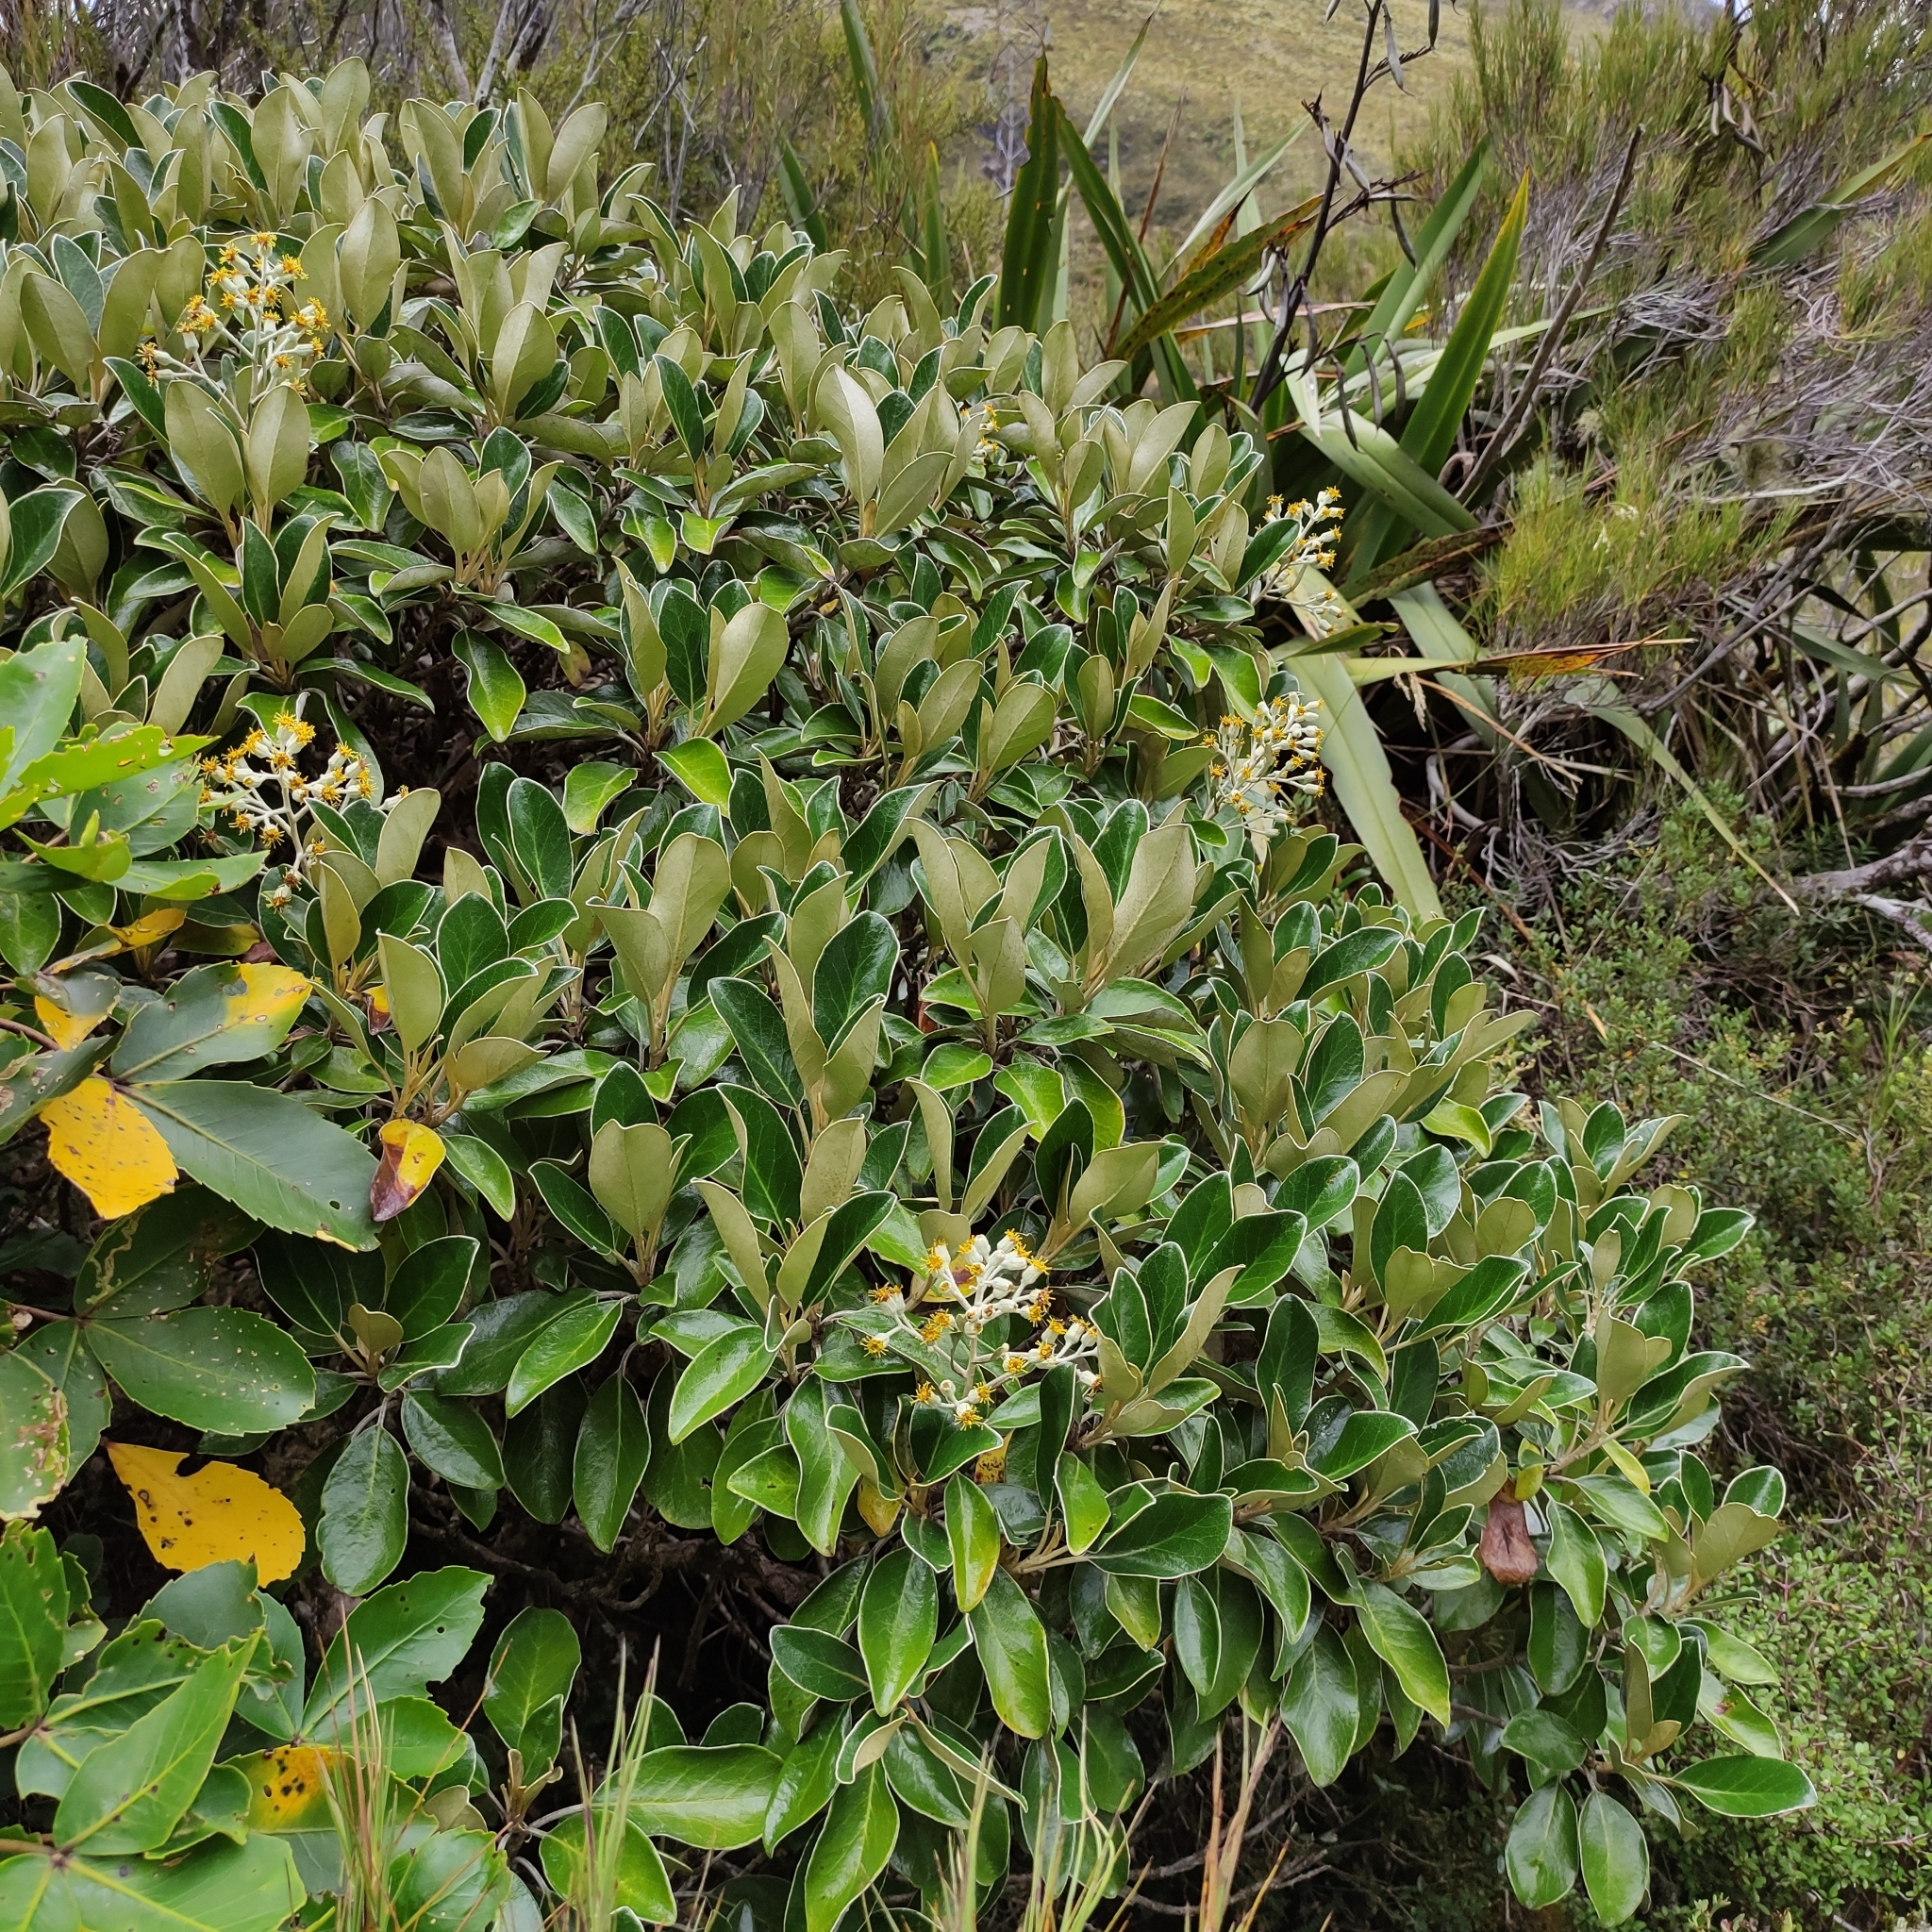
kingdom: Plantae
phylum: Tracheophyta
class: Magnoliopsida
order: Asterales
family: Asteraceae
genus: Brachyglottis
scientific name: Brachyglottis buchananii
